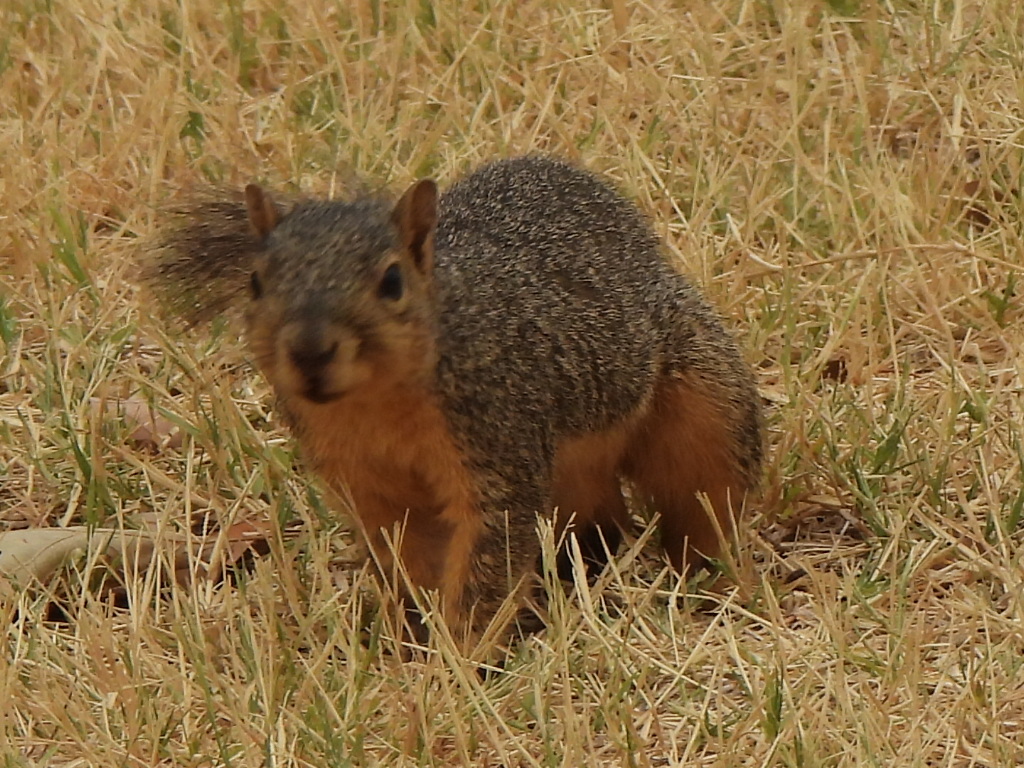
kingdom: Animalia
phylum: Chordata
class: Mammalia
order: Rodentia
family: Sciuridae
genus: Sciurus
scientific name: Sciurus niger
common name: Fox squirrel
